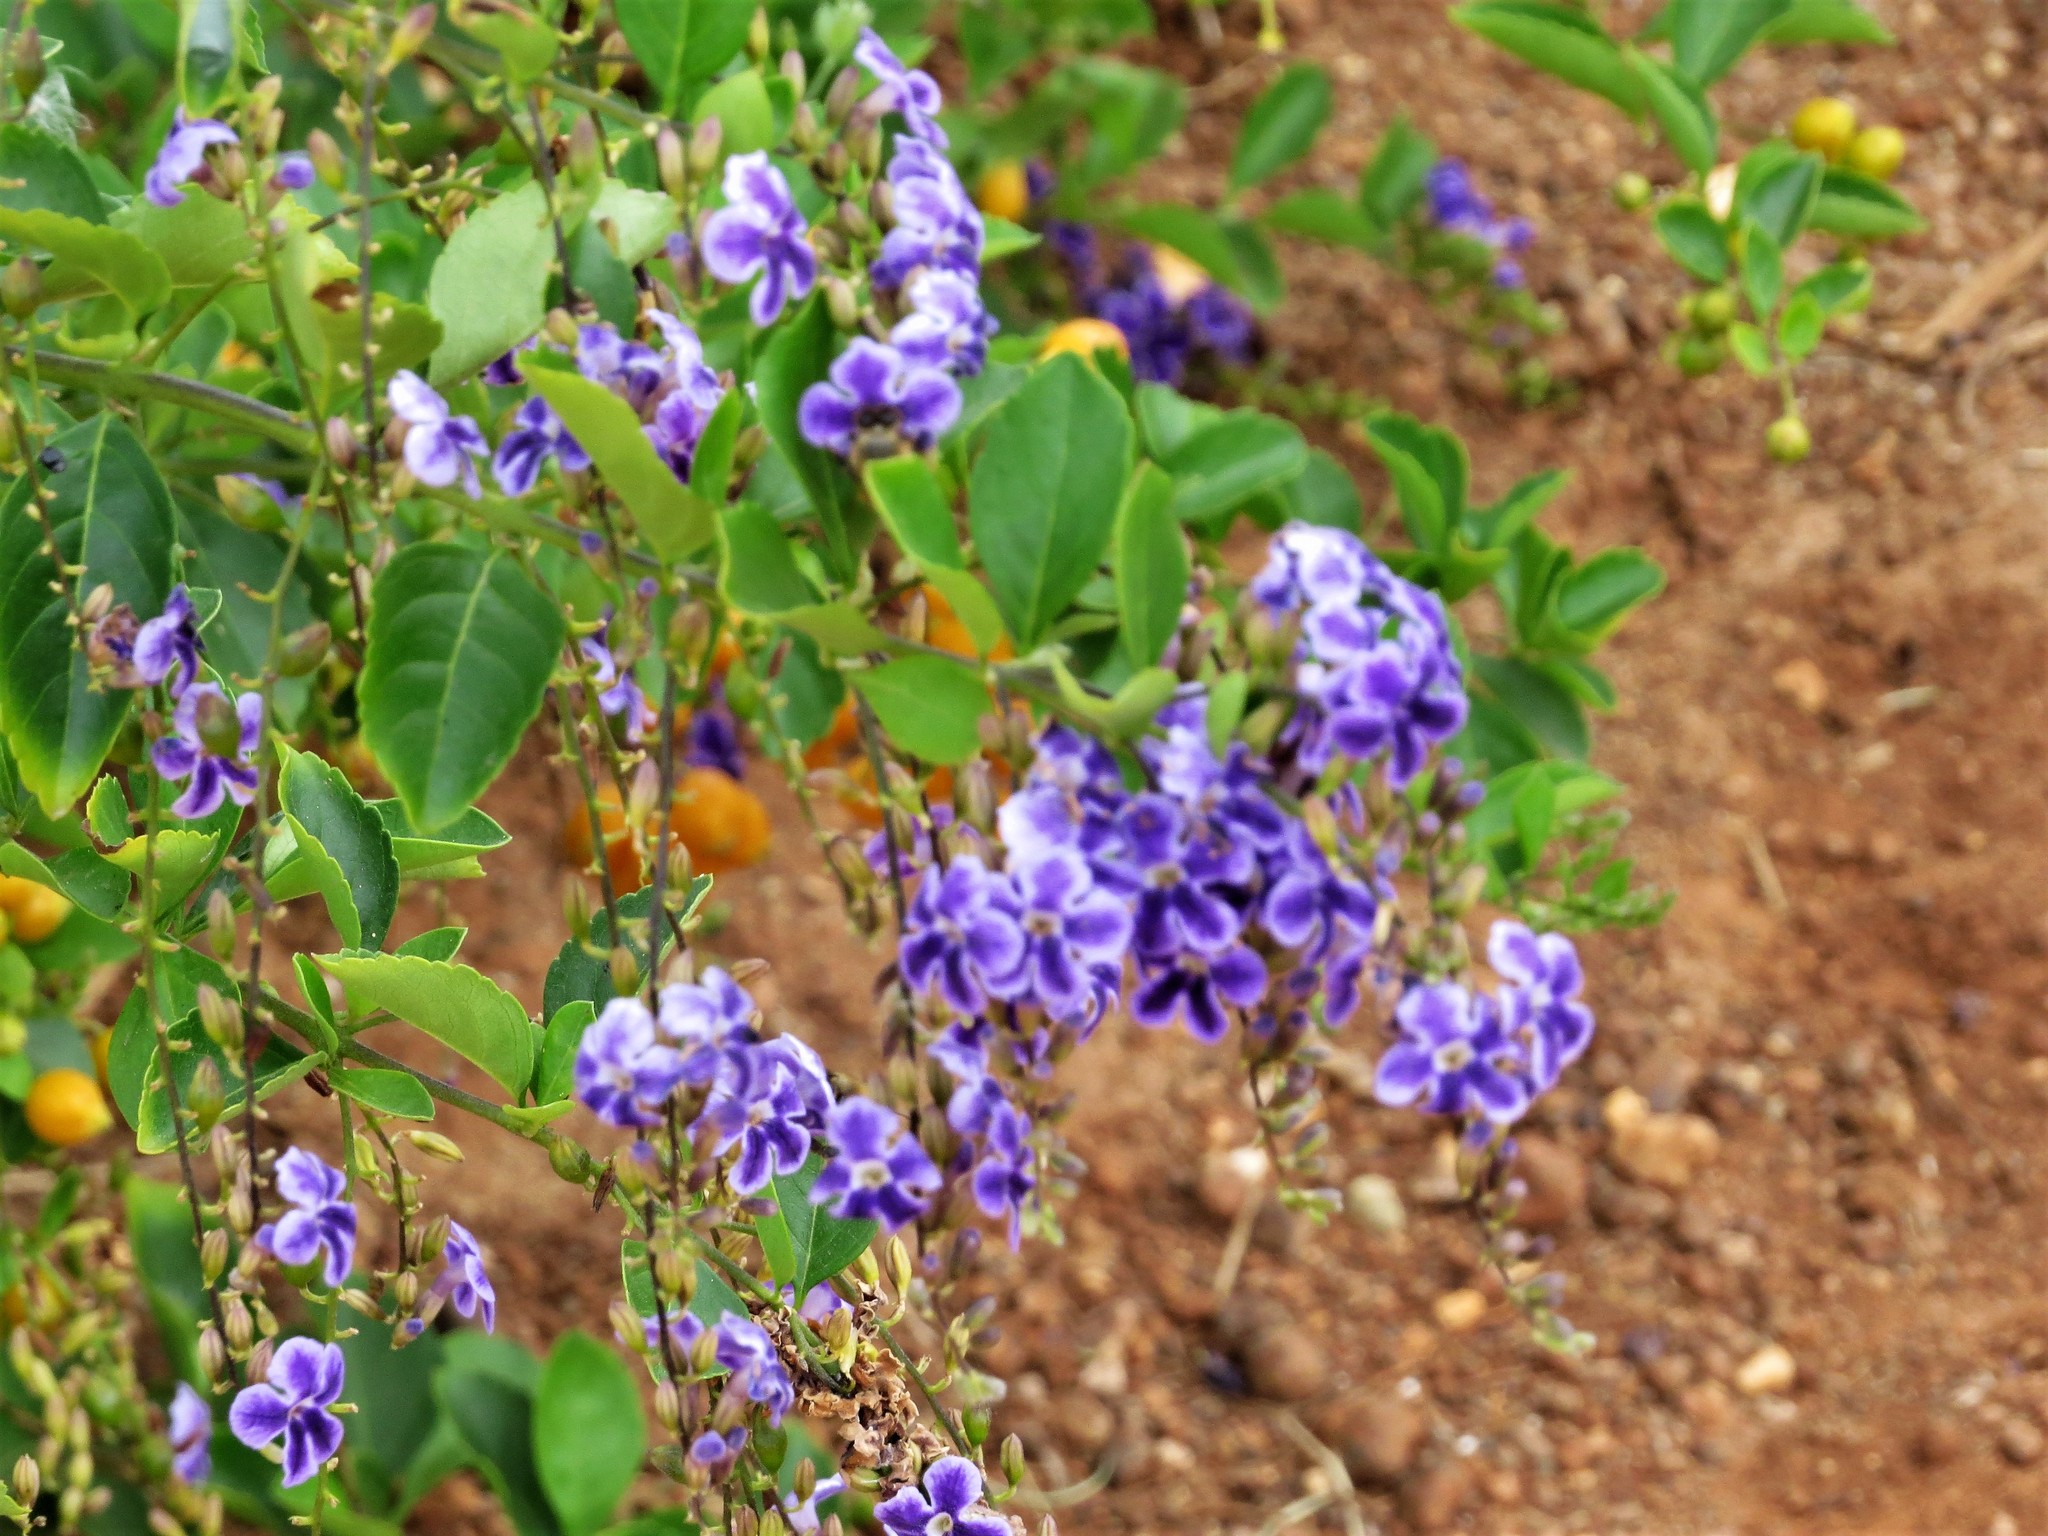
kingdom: Plantae
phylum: Tracheophyta
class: Magnoliopsida
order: Lamiales
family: Verbenaceae
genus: Duranta
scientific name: Duranta erecta
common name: Golden dewdrops
